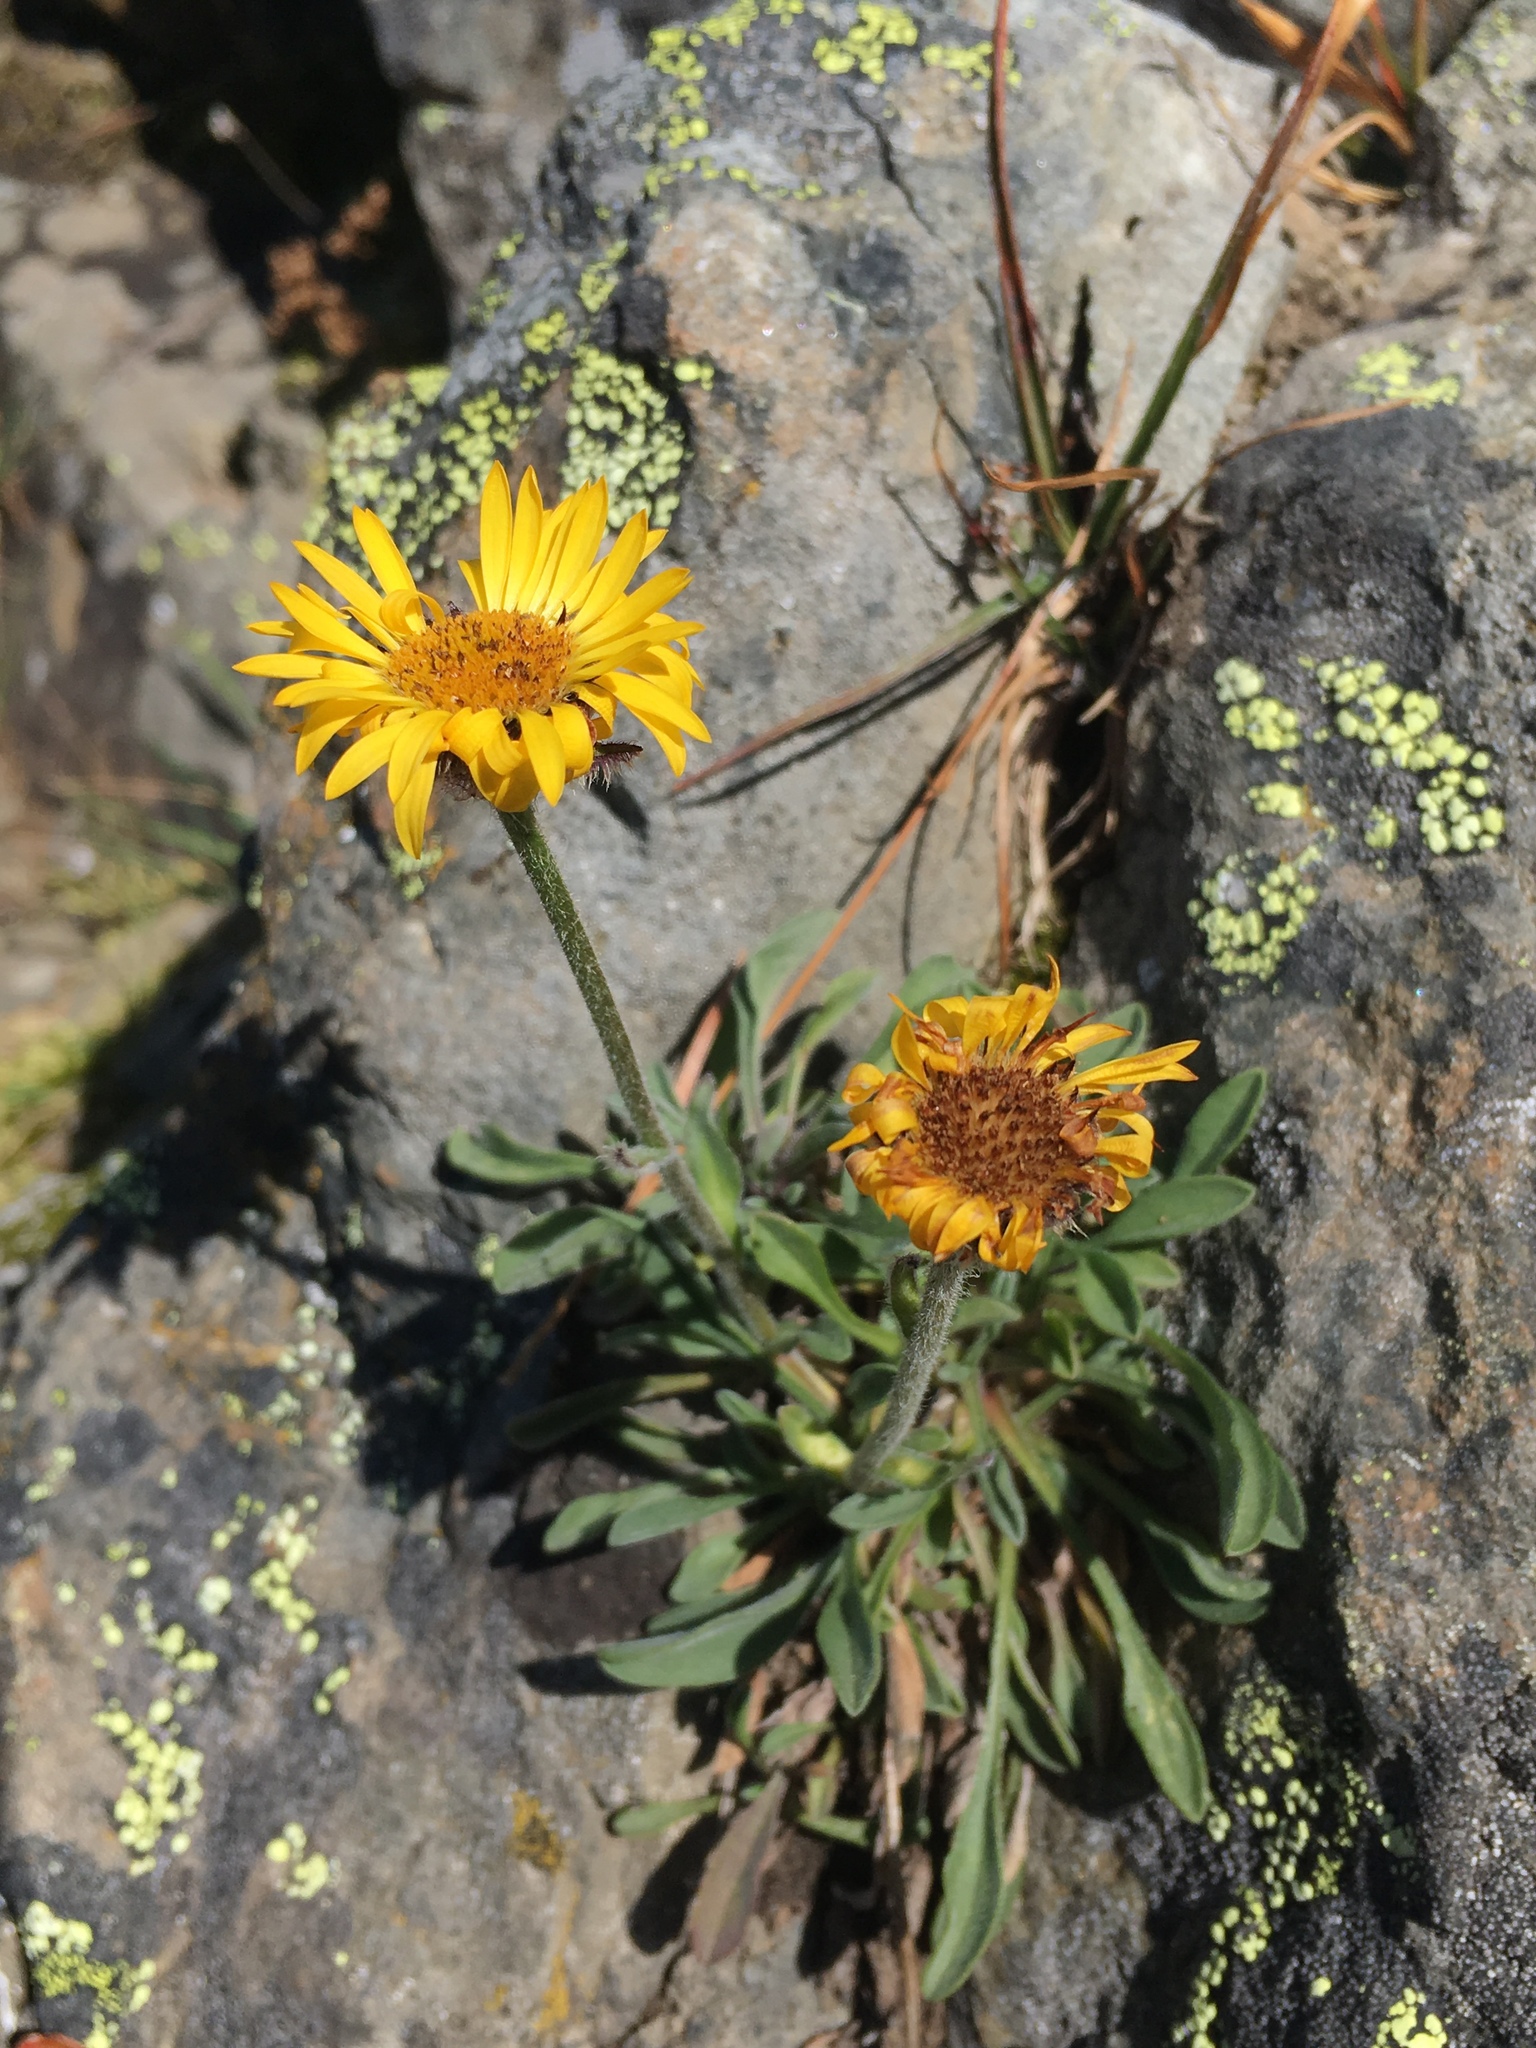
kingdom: Plantae
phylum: Tracheophyta
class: Magnoliopsida
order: Asterales
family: Asteraceae
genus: Erigeron
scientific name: Erigeron aureus
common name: Alpine yellow fleabane
